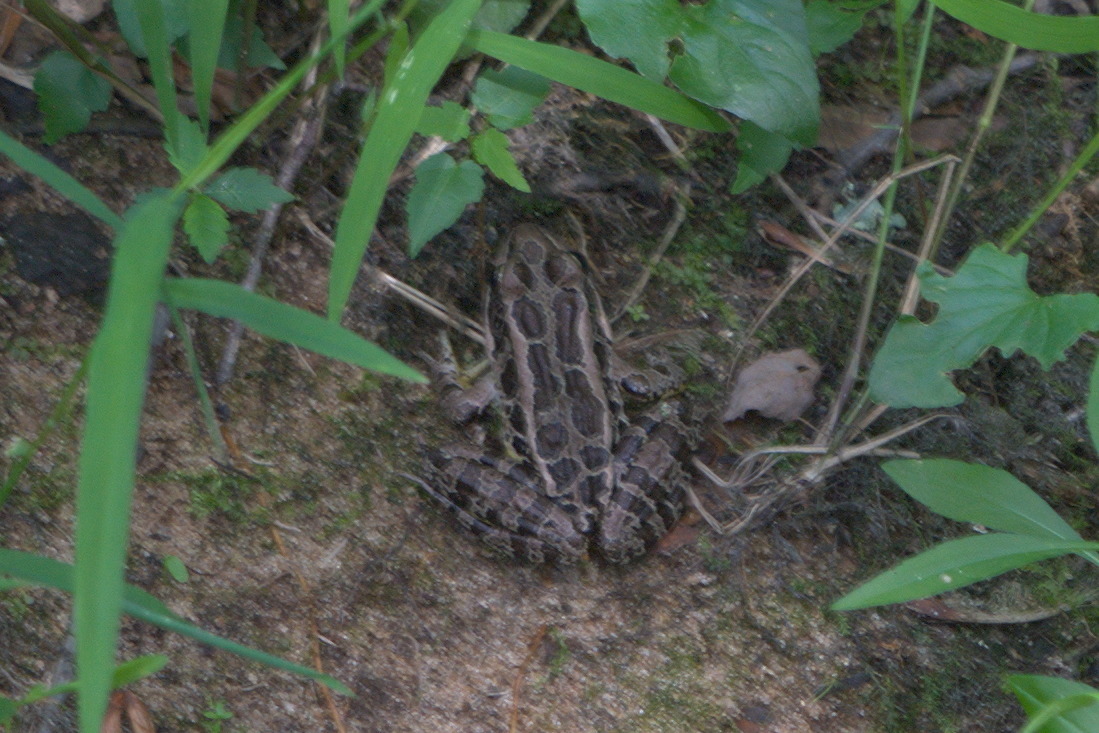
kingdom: Animalia
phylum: Chordata
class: Amphibia
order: Anura
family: Ranidae
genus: Lithobates
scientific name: Lithobates palustris
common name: Pickerel frog
